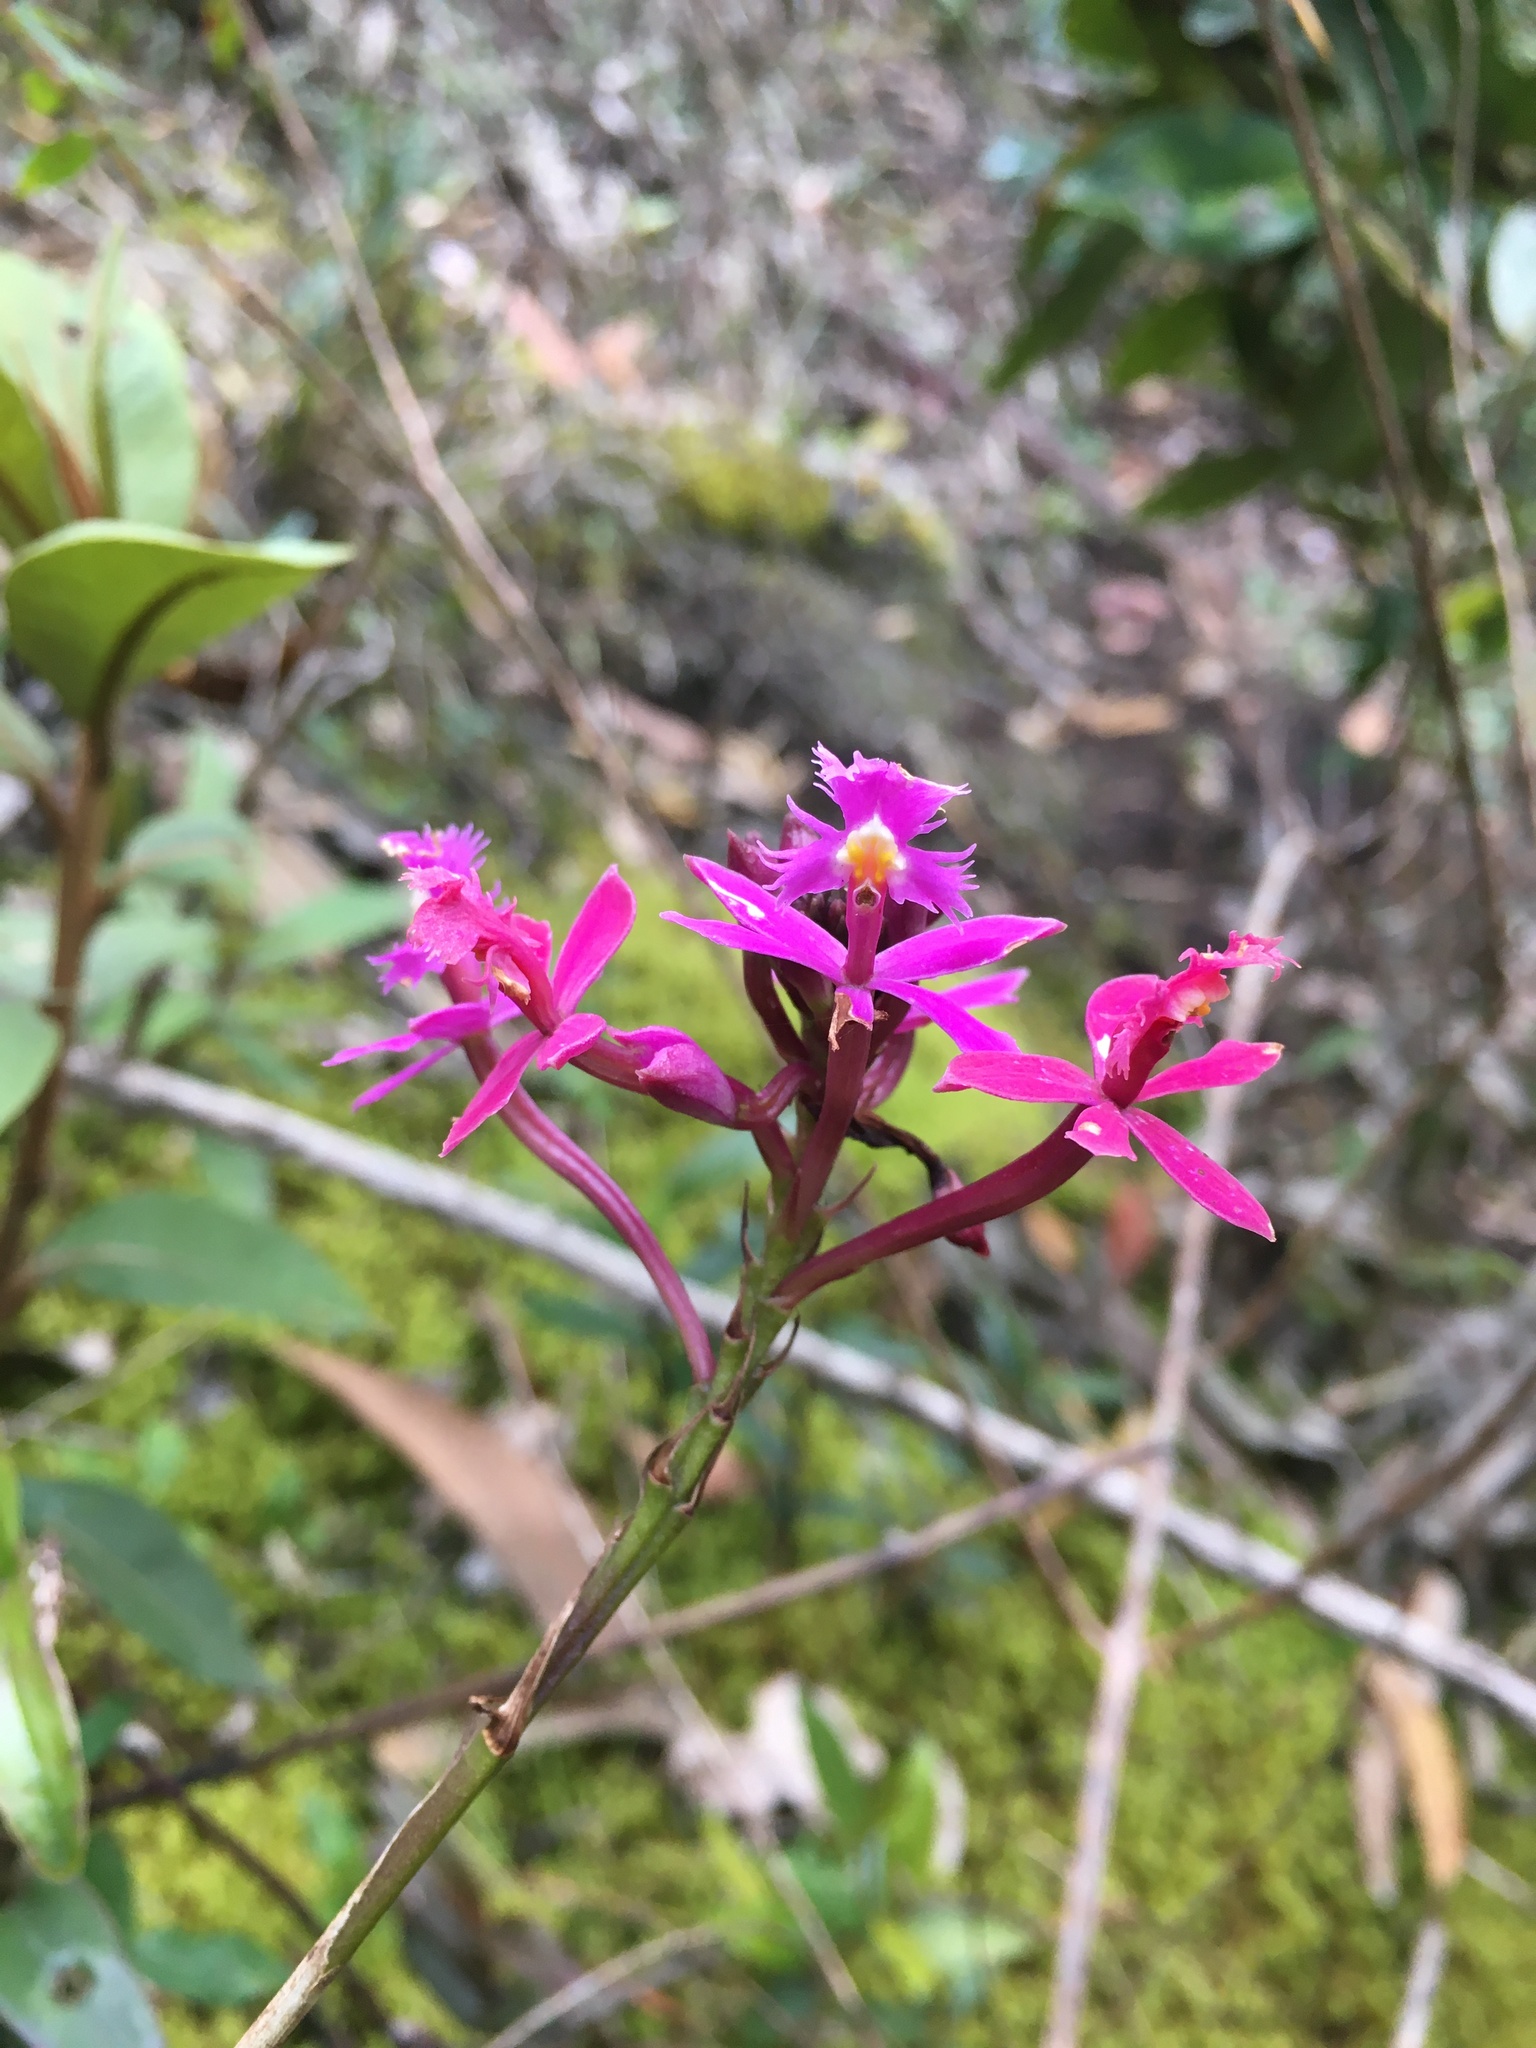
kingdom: Plantae
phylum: Tracheophyta
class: Liliopsida
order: Asparagales
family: Orchidaceae
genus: Epidendrum
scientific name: Epidendrum arachnoglossum
